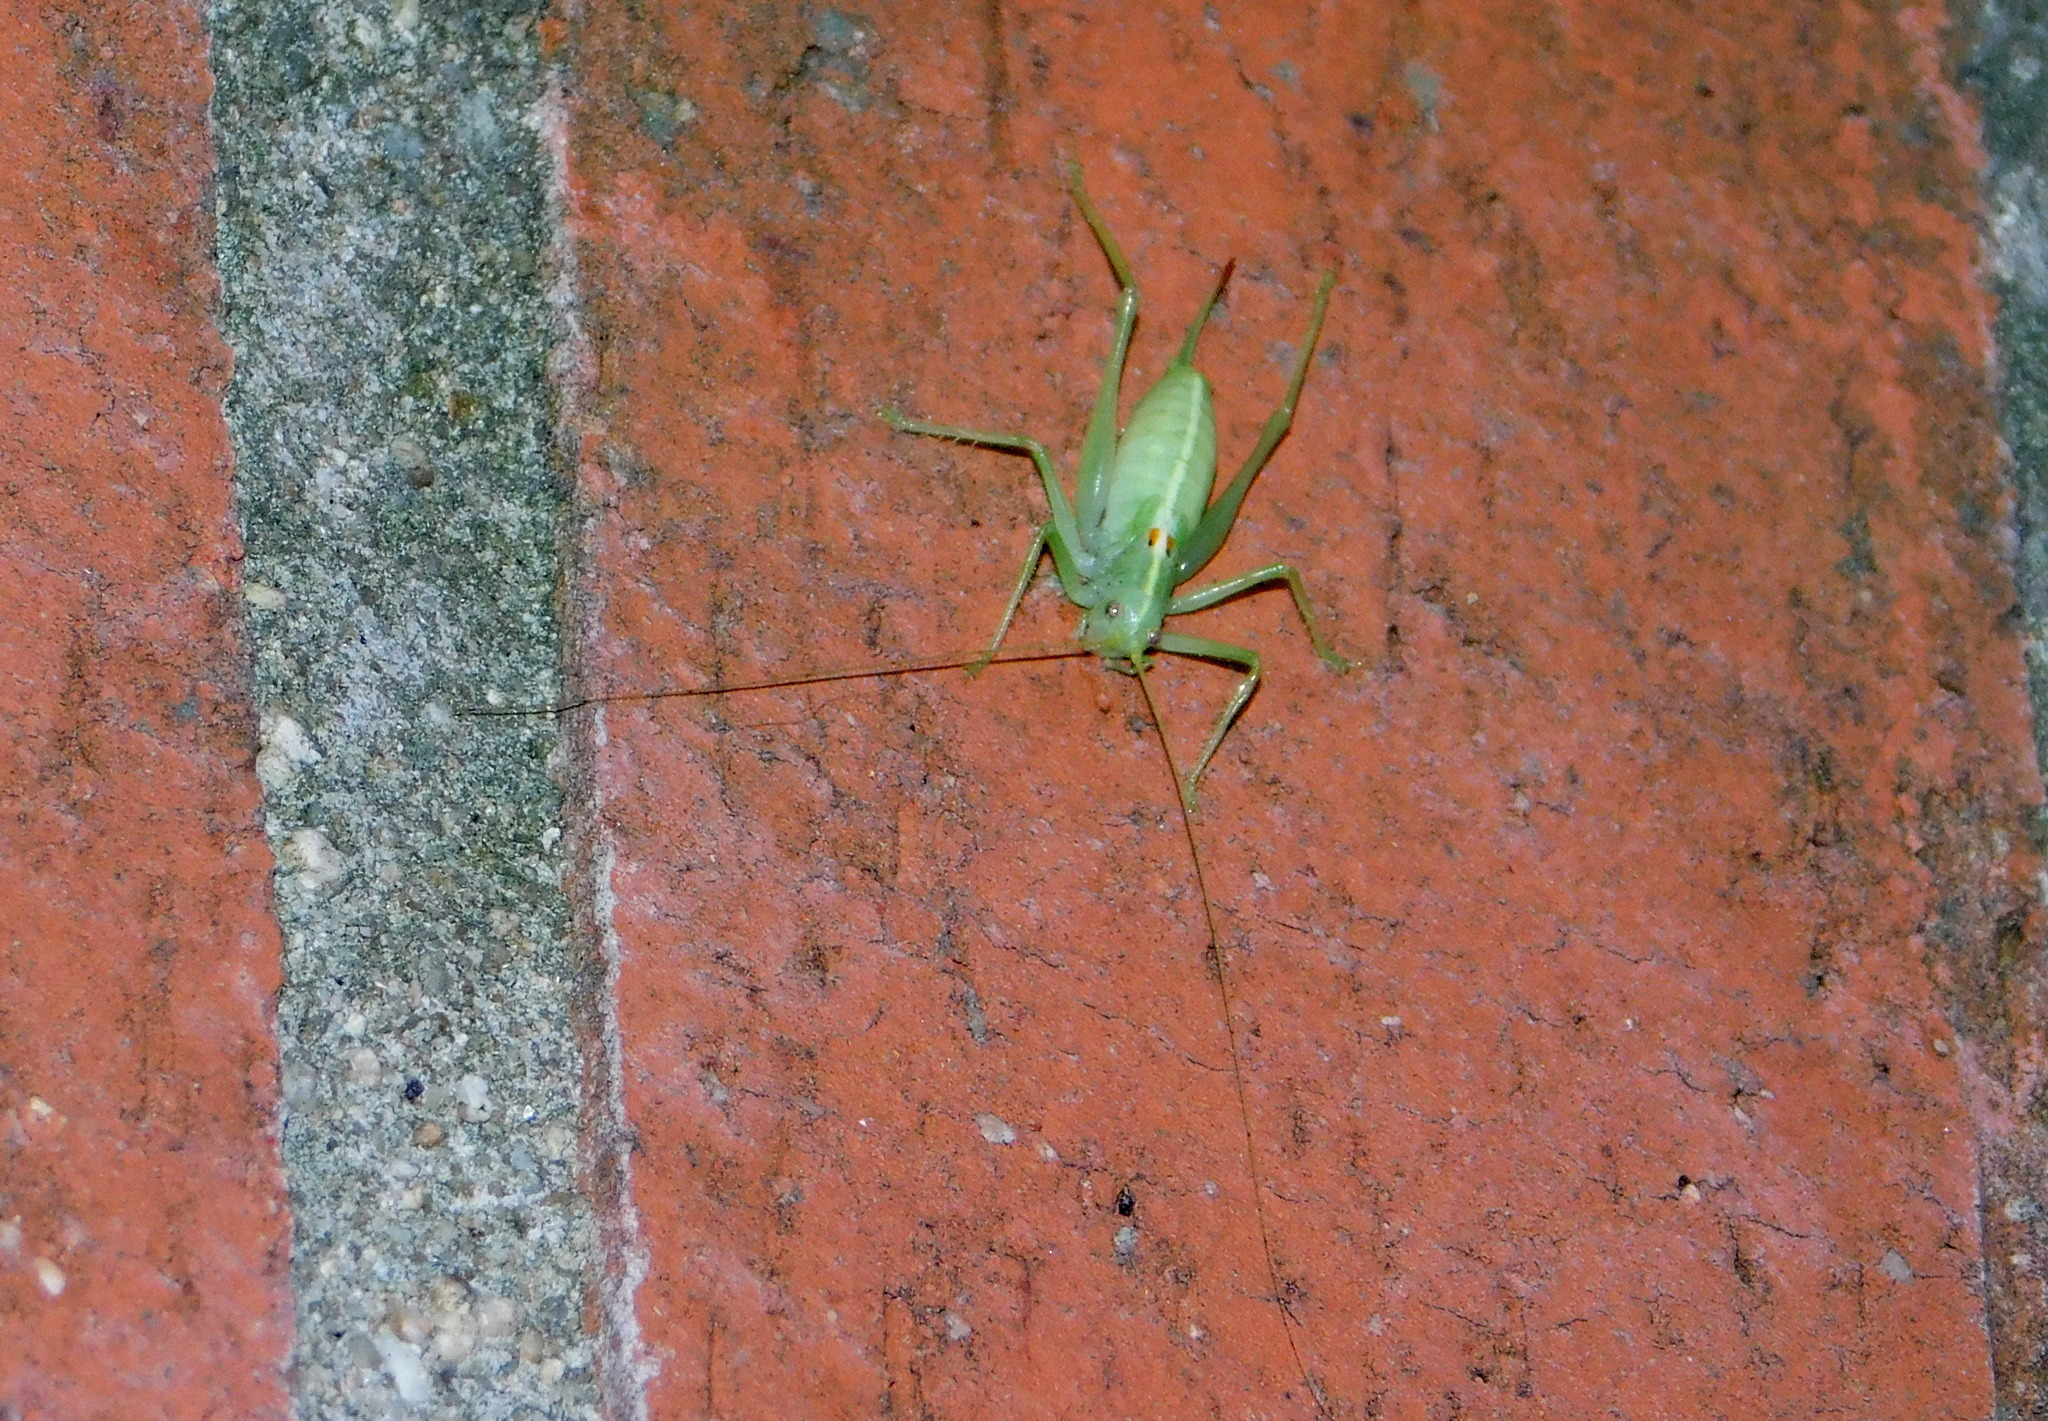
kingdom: Animalia
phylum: Arthropoda
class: Insecta
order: Orthoptera
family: Tettigoniidae
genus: Meconema
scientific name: Meconema meridionale
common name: Southern oak bush-cricket
